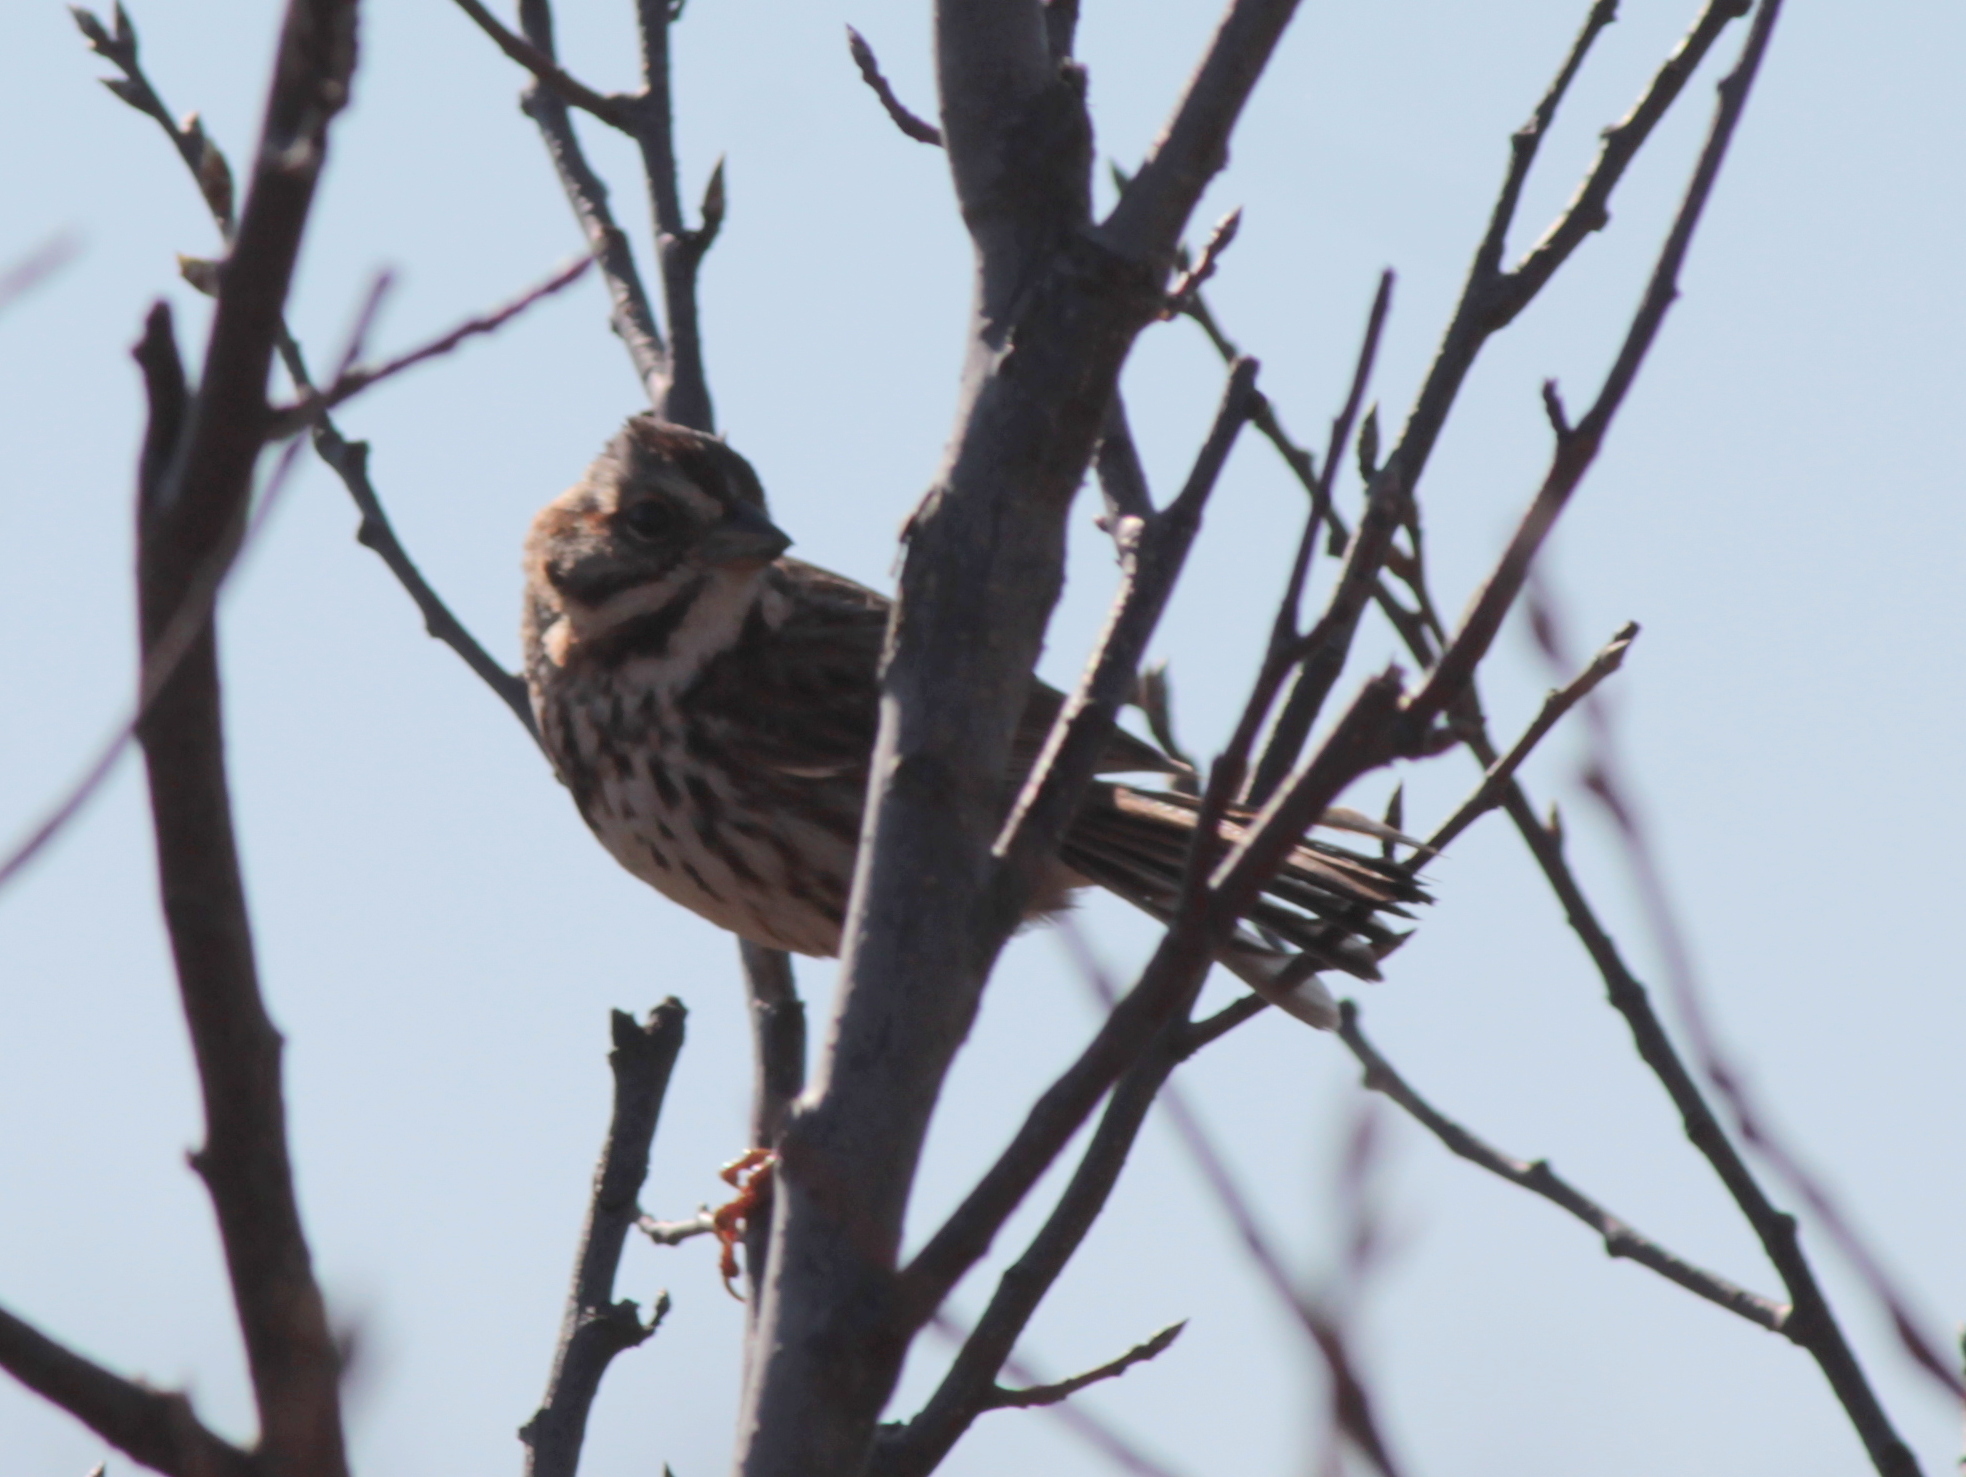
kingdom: Animalia
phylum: Chordata
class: Aves
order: Passeriformes
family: Passerellidae
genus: Melospiza
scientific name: Melospiza melodia
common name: Song sparrow
